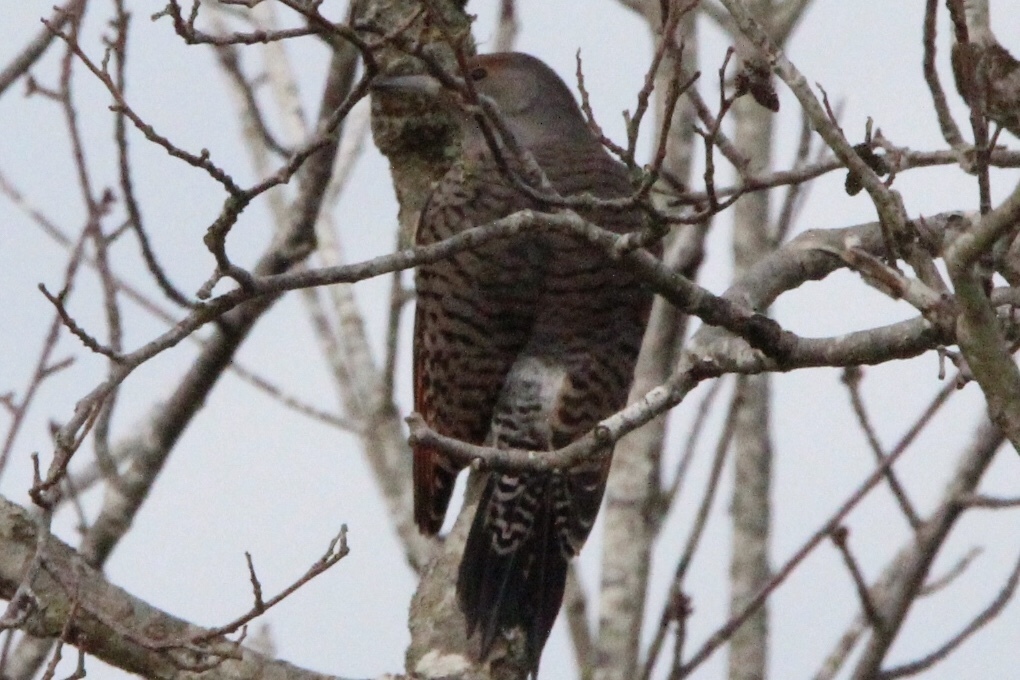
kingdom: Animalia
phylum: Chordata
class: Aves
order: Piciformes
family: Picidae
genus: Colaptes
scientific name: Colaptes auratus
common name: Northern flicker
